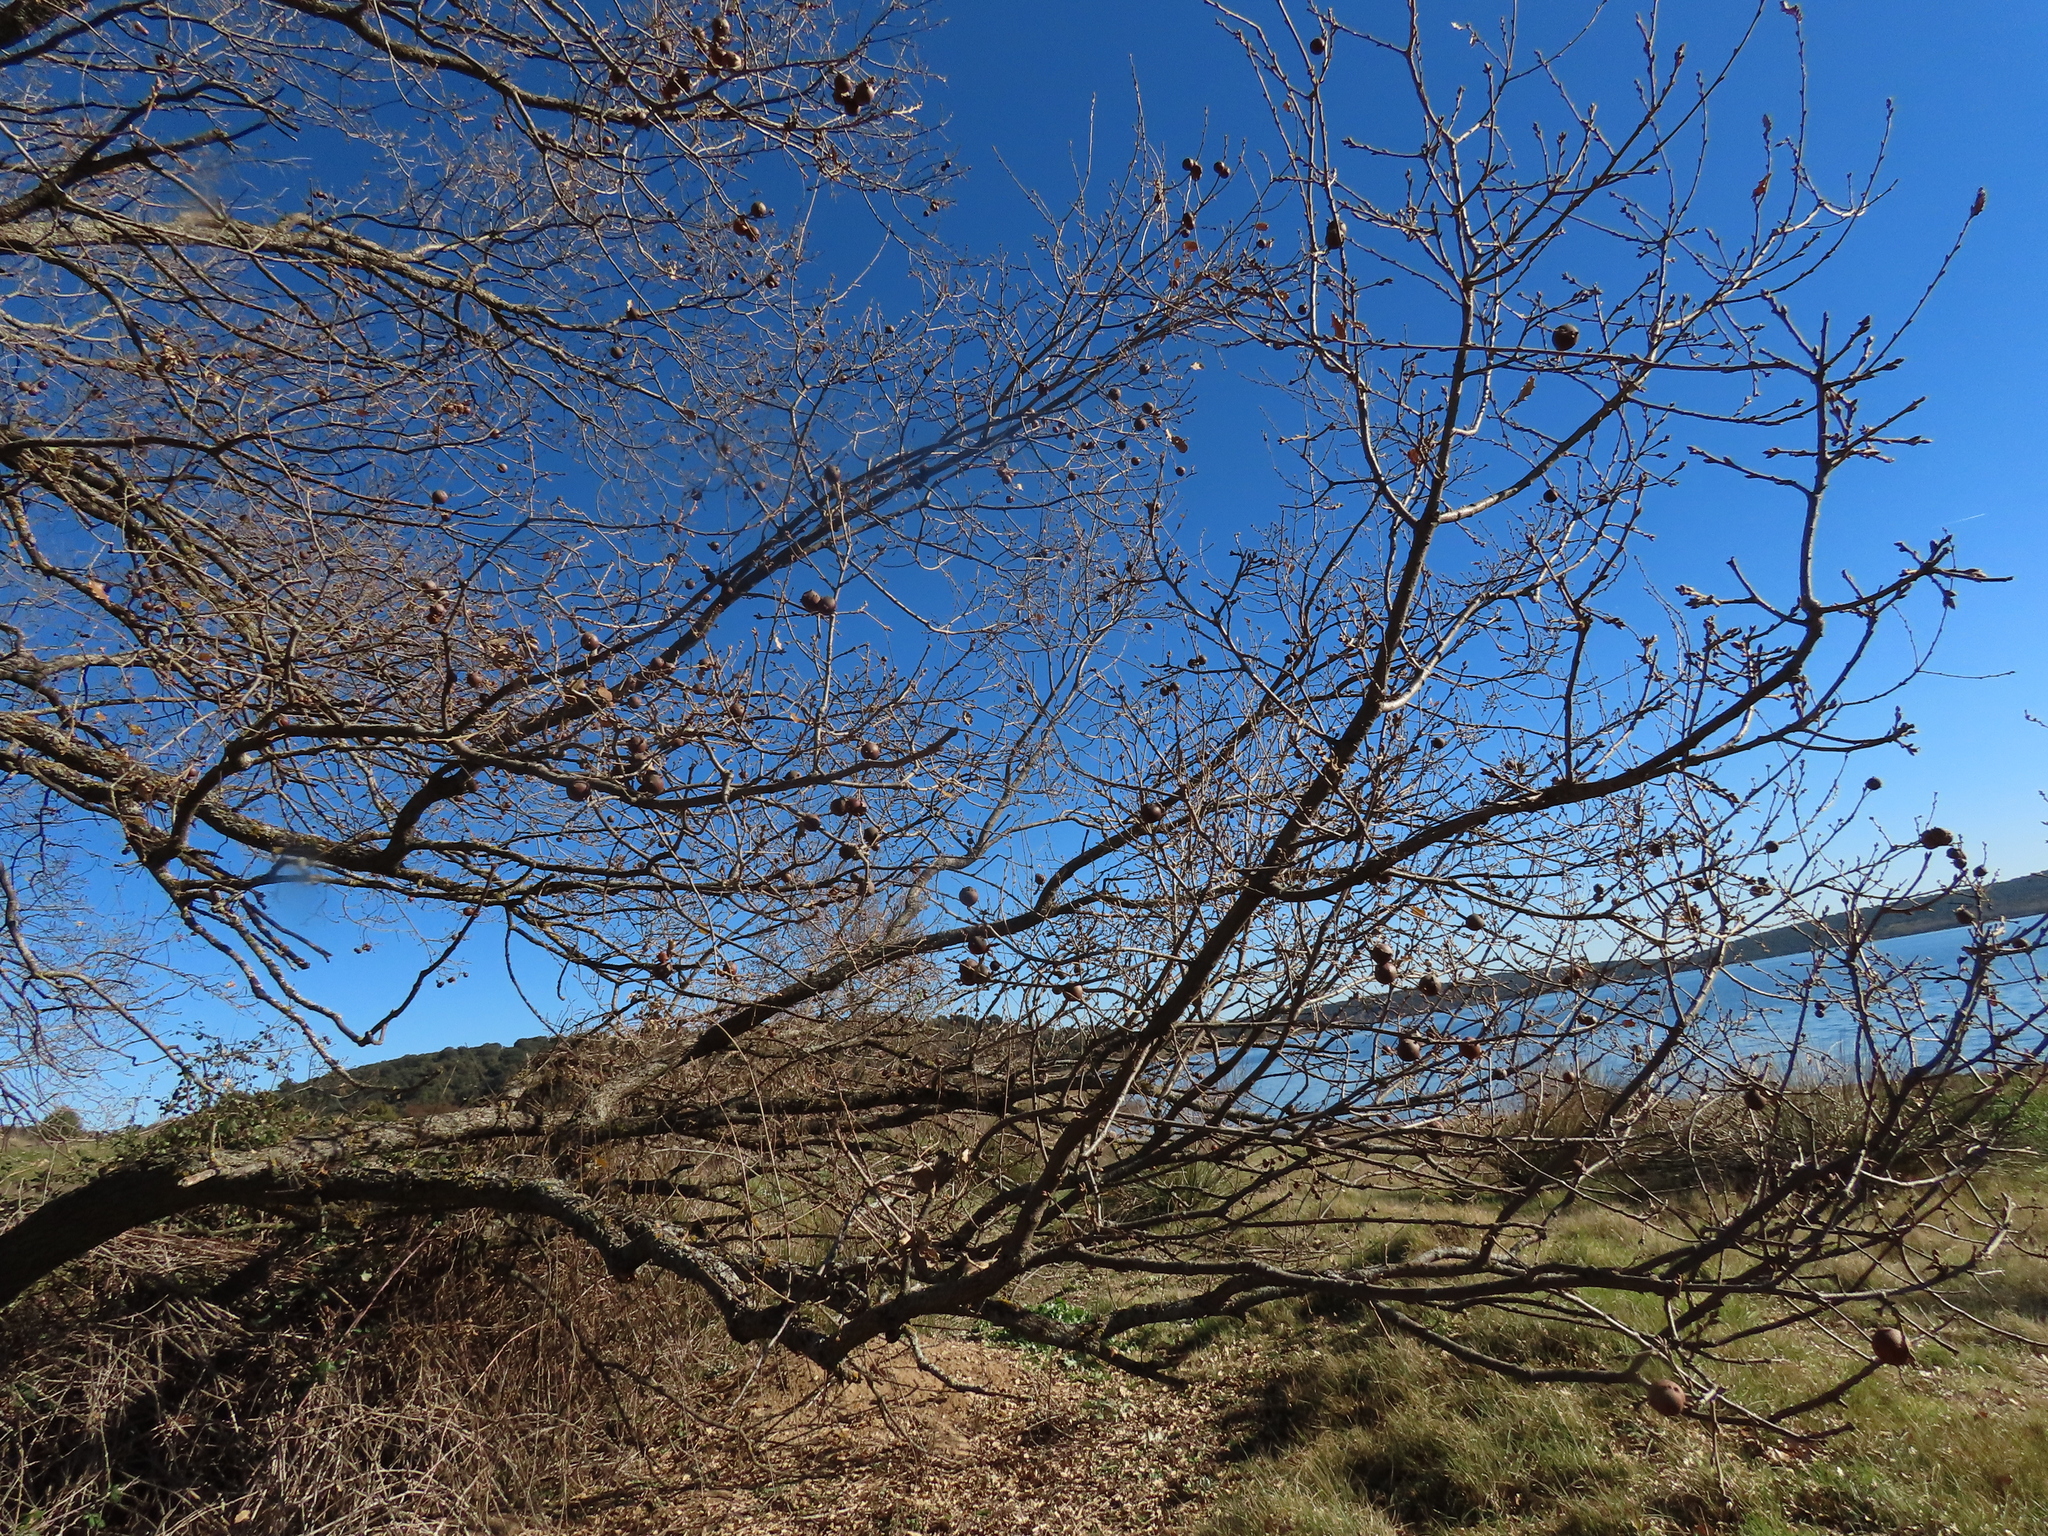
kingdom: Plantae
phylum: Tracheophyta
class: Magnoliopsida
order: Fagales
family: Fagaceae
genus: Quercus
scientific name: Quercus faginea
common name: Gall oak tree
